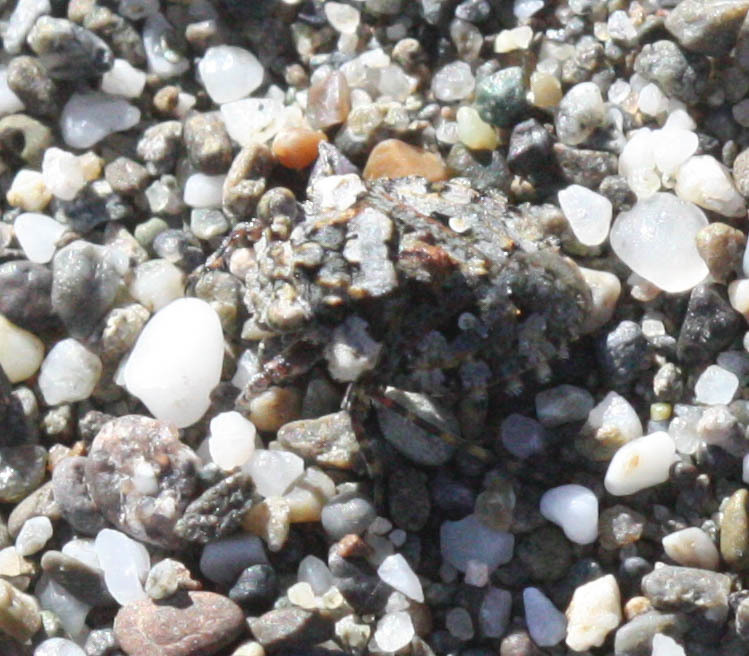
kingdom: Animalia
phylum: Arthropoda
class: Insecta
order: Hemiptera
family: Gelastocoridae
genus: Gelastocoris
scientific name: Gelastocoris oculatus
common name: Toad bug
